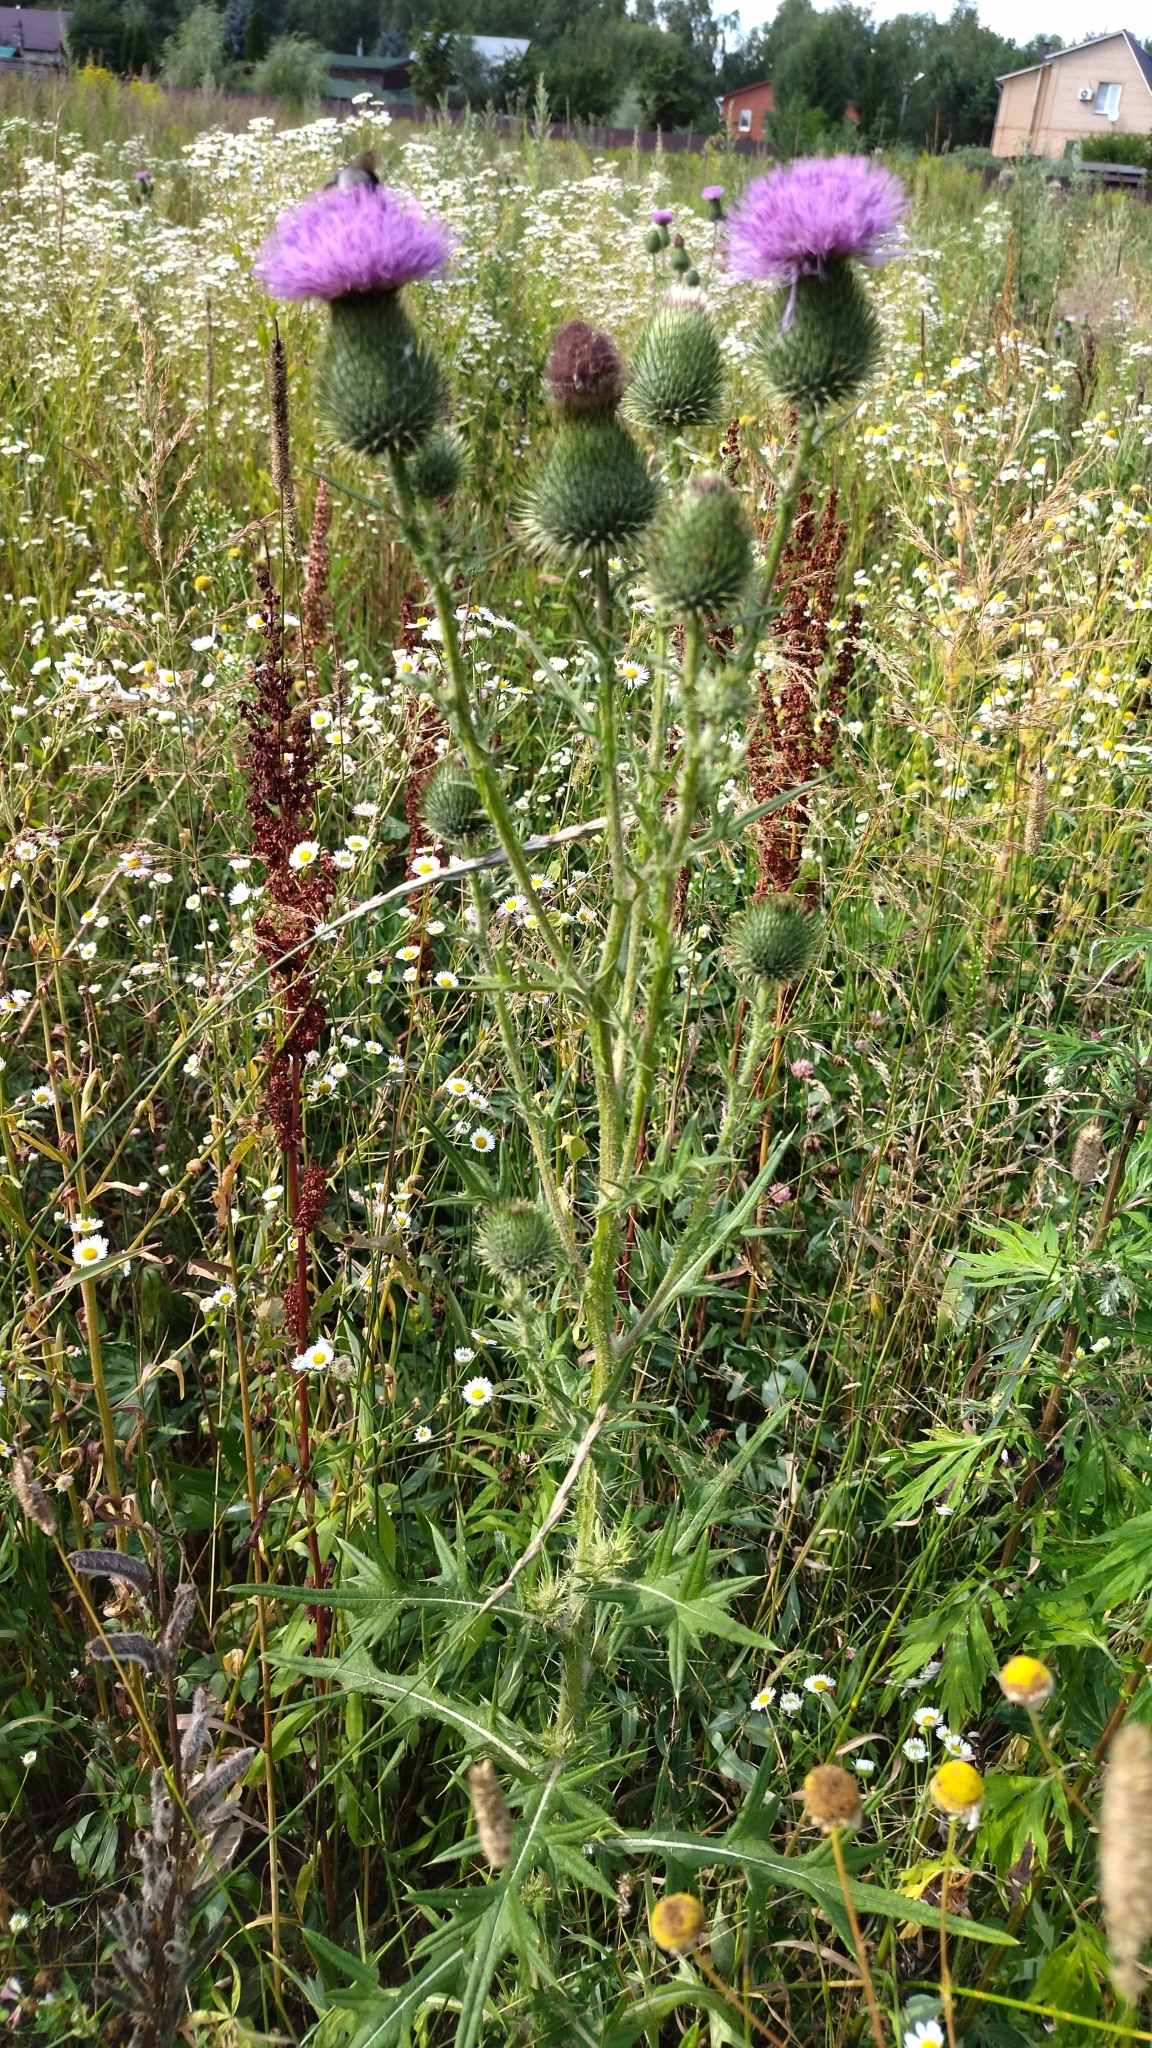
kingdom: Plantae
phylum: Tracheophyta
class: Magnoliopsida
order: Asterales
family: Asteraceae
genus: Cirsium
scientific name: Cirsium vulgare
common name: Bull thistle
